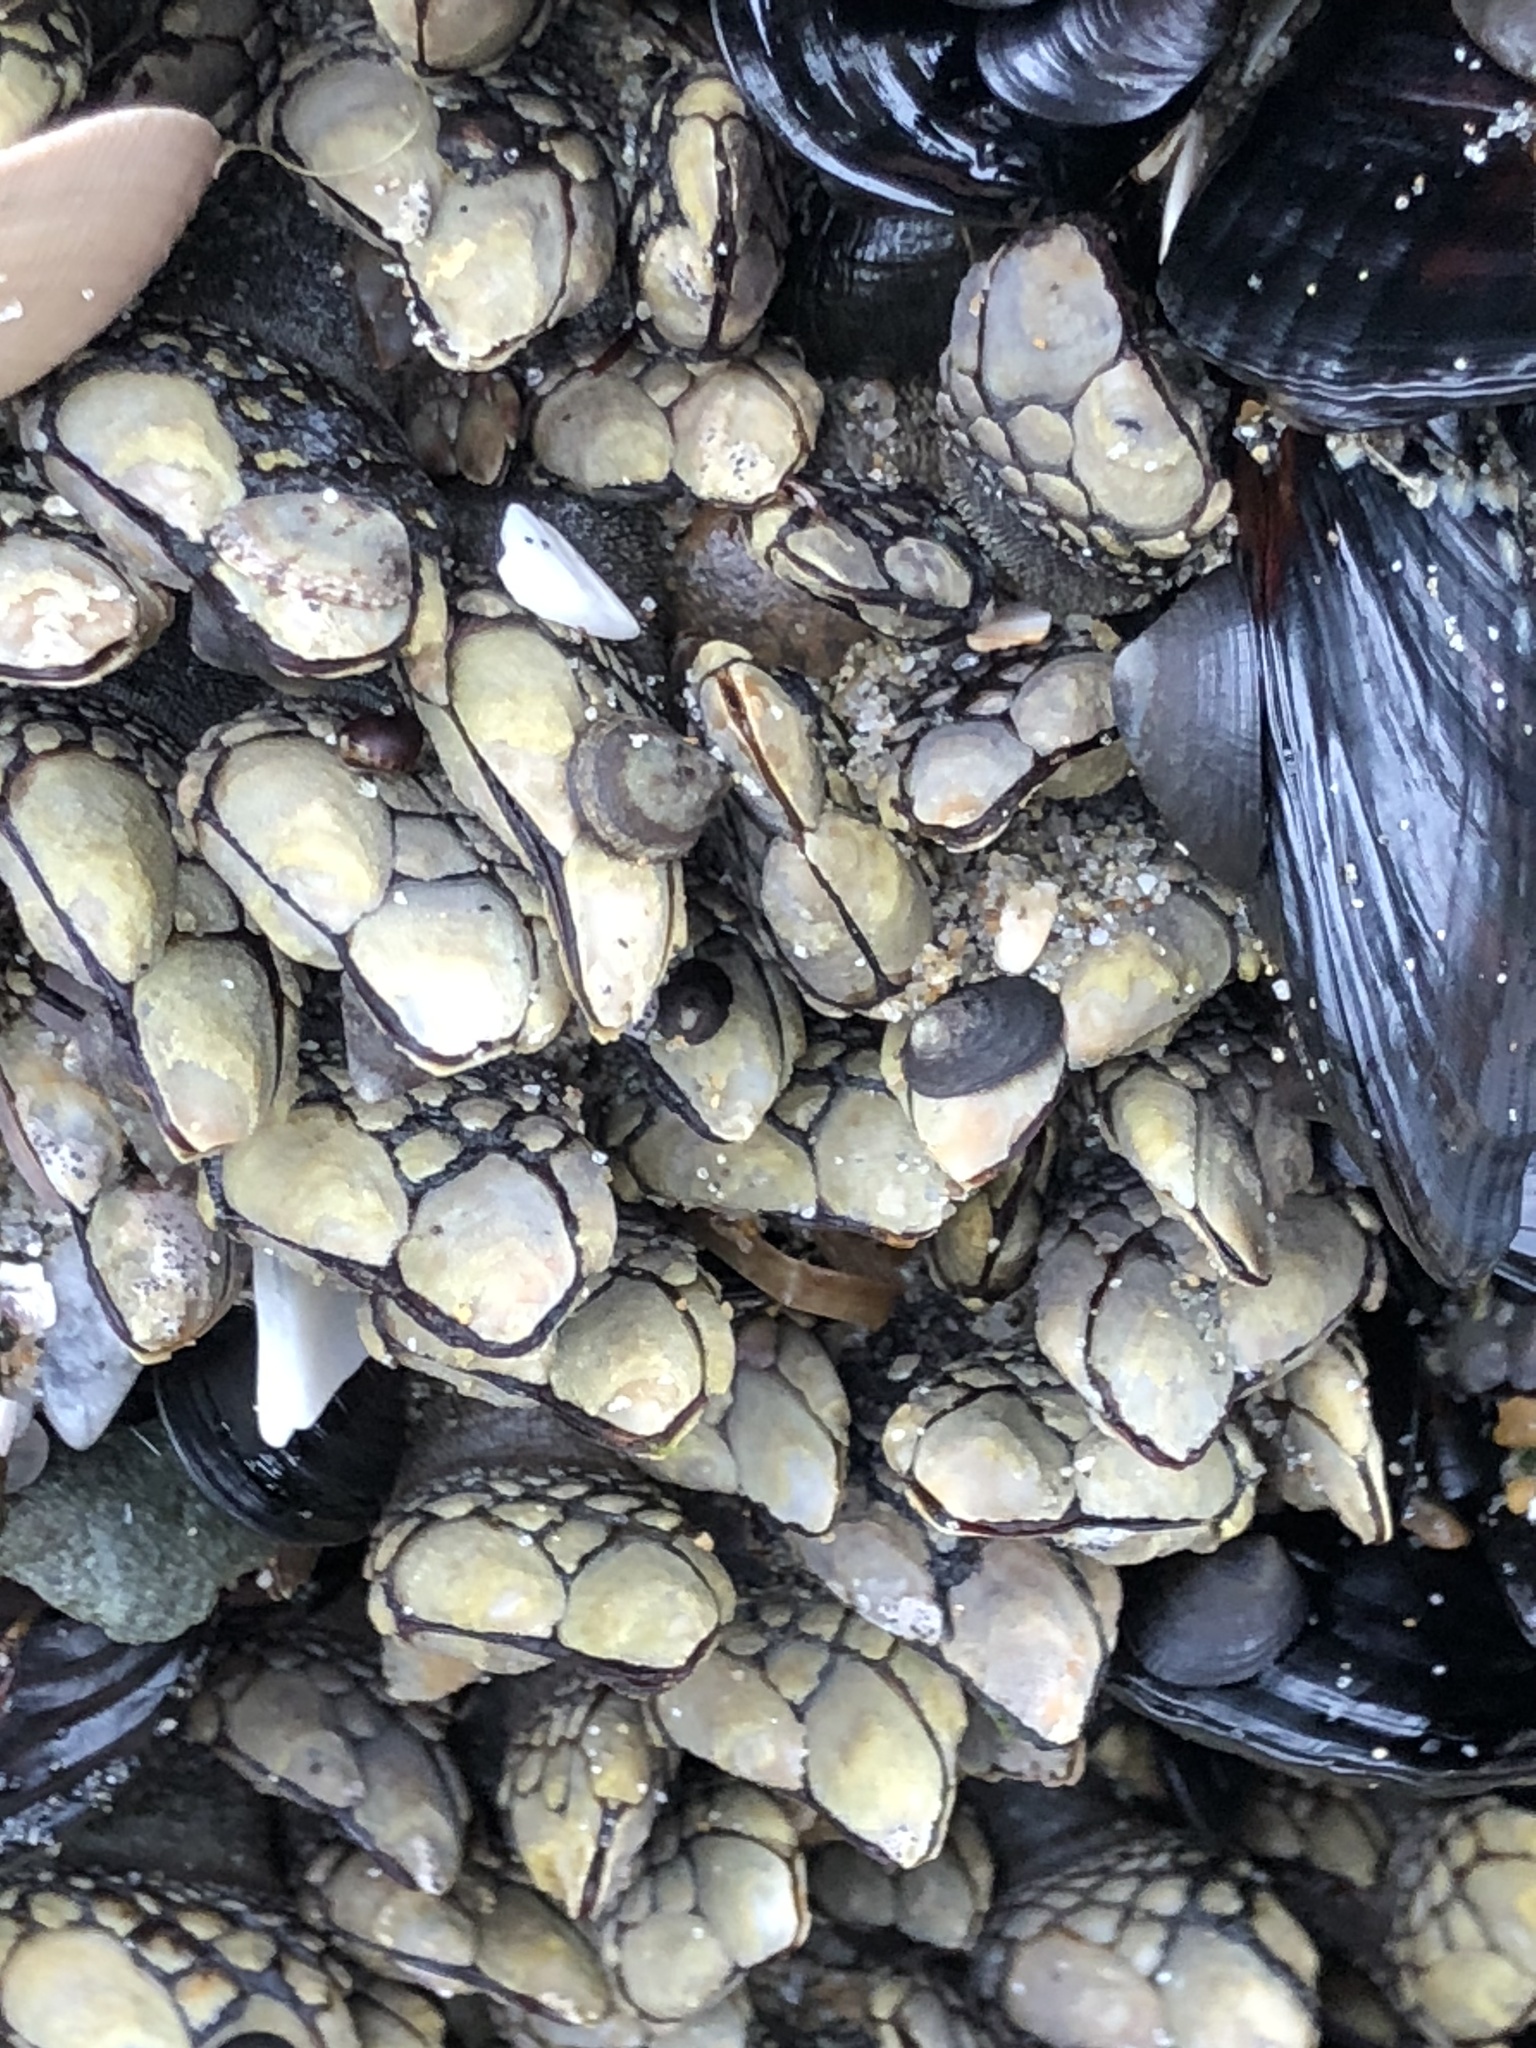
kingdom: Animalia
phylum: Arthropoda
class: Maxillopoda
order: Pedunculata
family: Pollicipedidae
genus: Pollicipes
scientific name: Pollicipes polymerus
